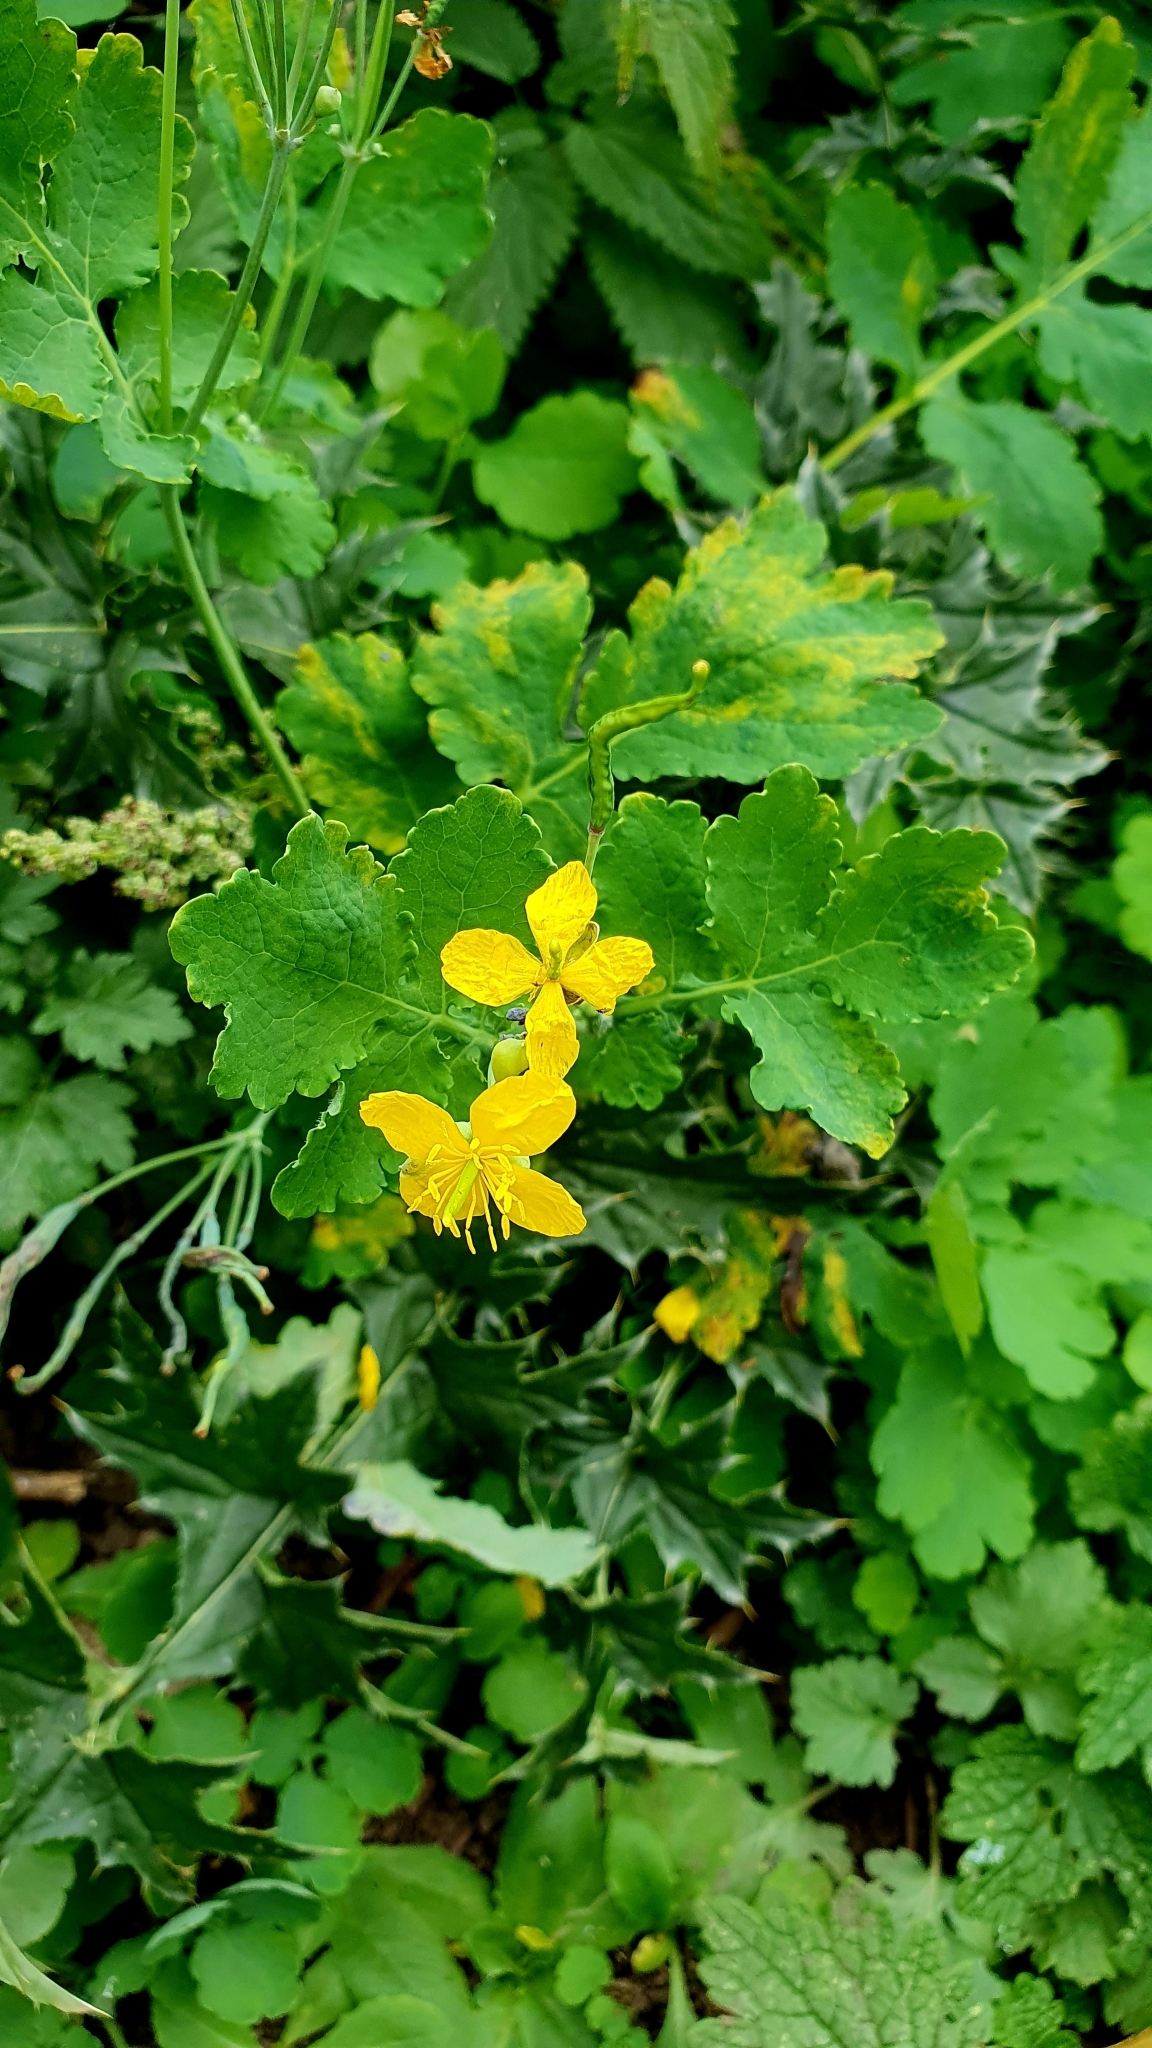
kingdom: Plantae
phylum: Tracheophyta
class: Magnoliopsida
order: Ranunculales
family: Papaveraceae
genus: Chelidonium
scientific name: Chelidonium majus
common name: Greater celandine
